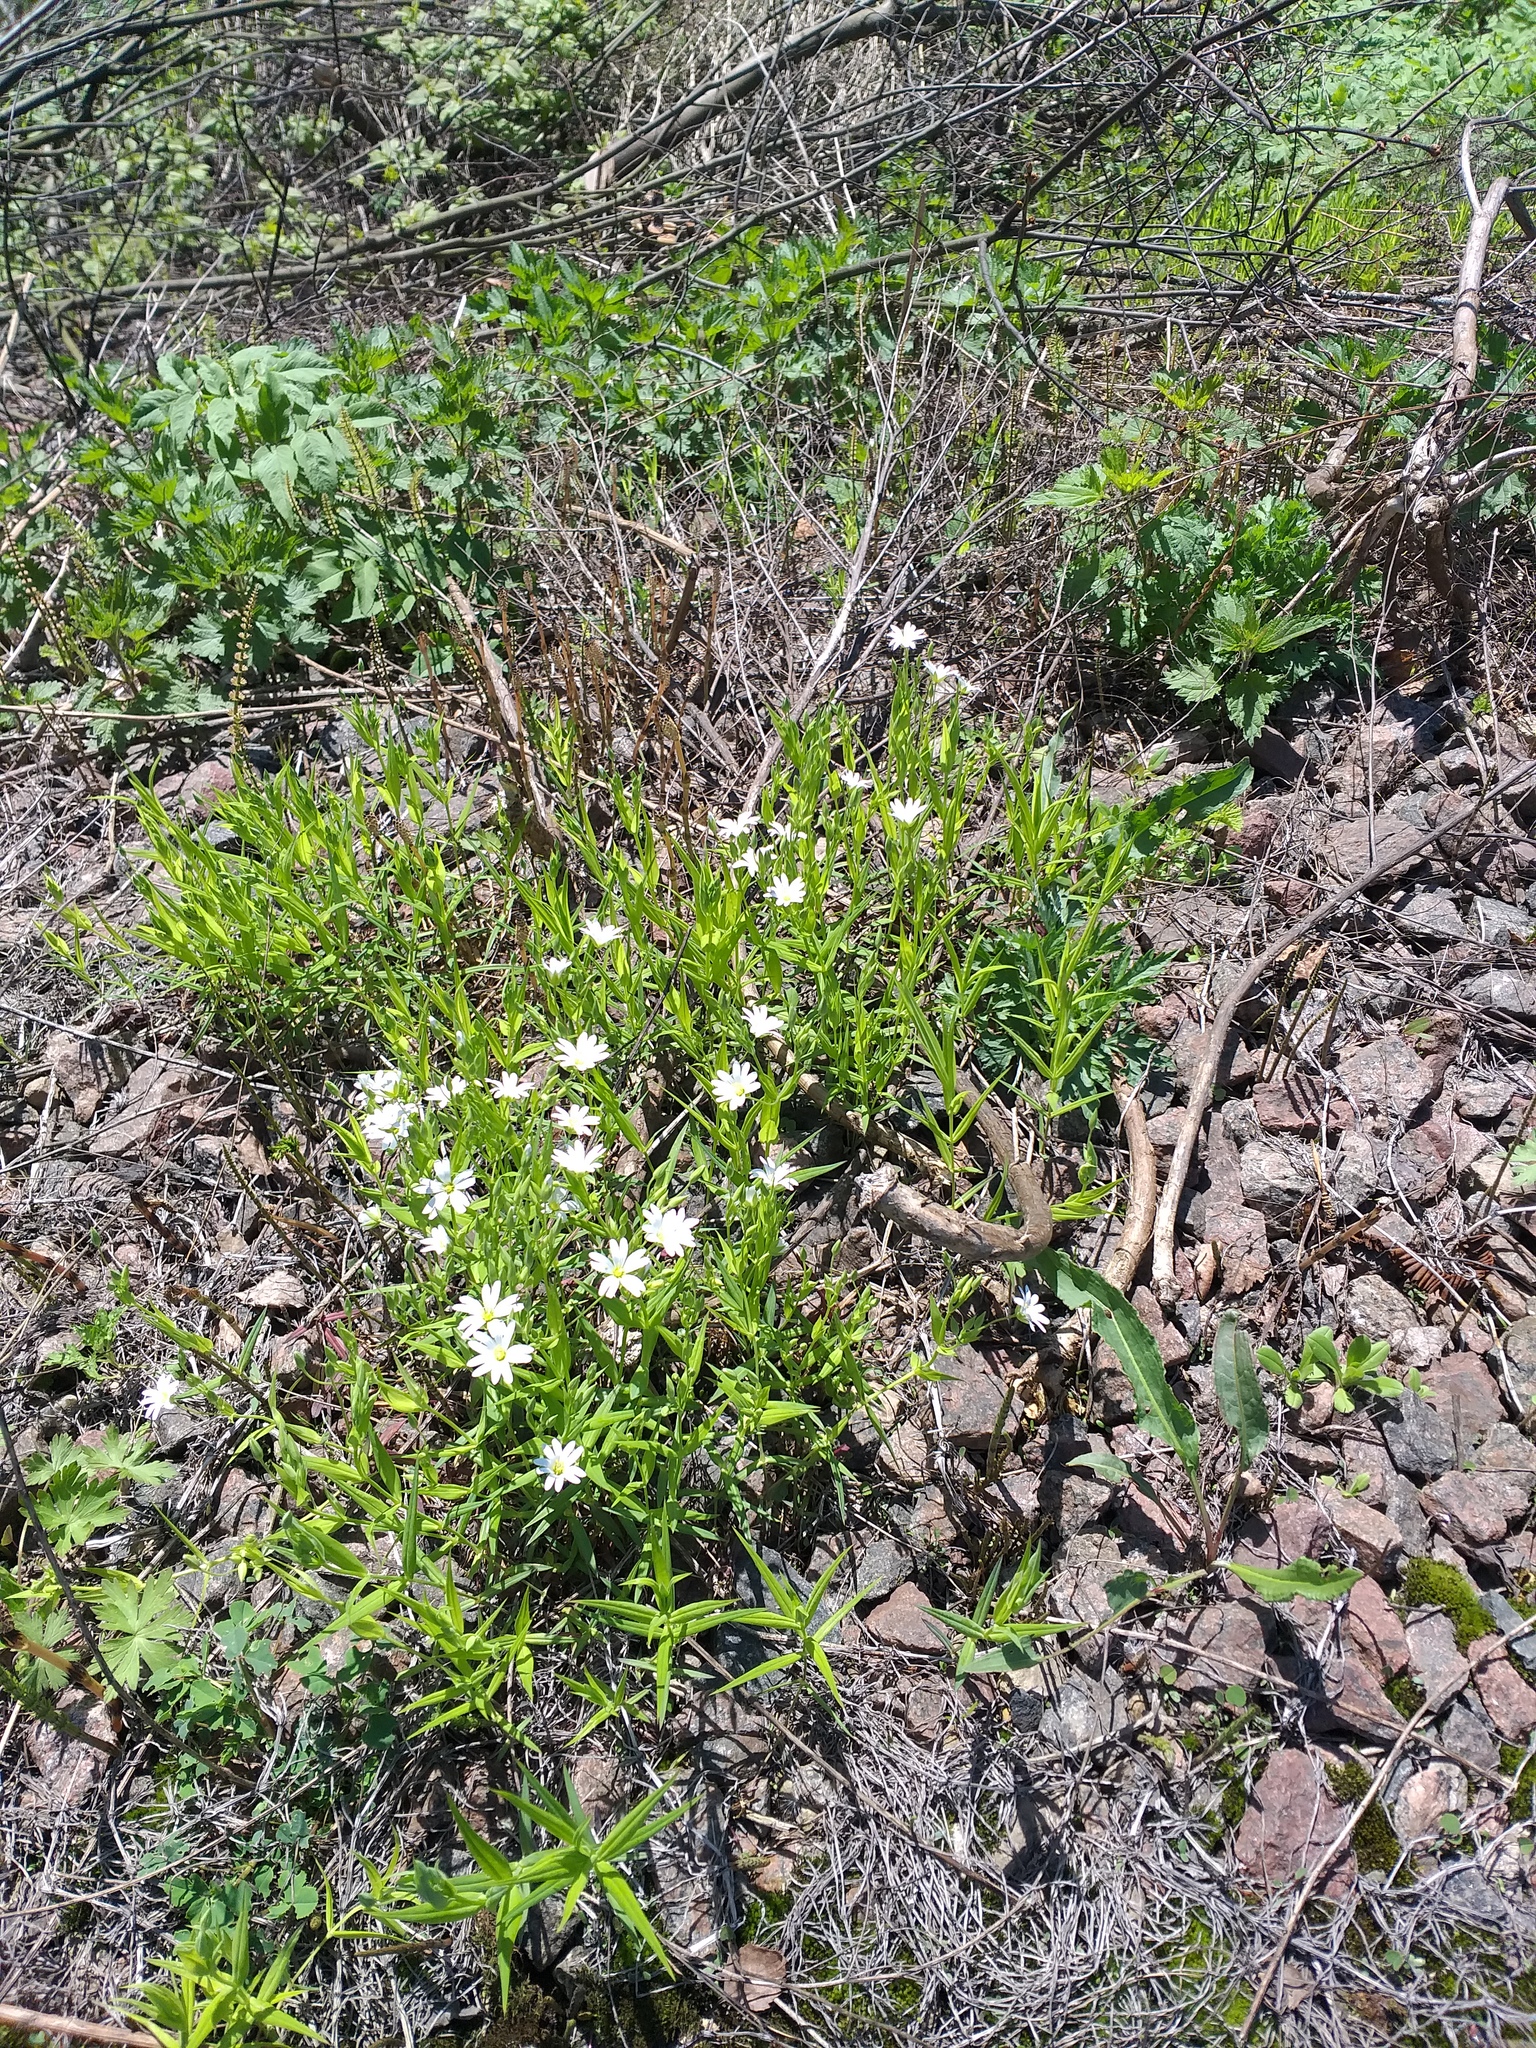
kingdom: Plantae
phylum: Tracheophyta
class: Magnoliopsida
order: Caryophyllales
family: Caryophyllaceae
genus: Rabelera
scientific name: Rabelera holostea
